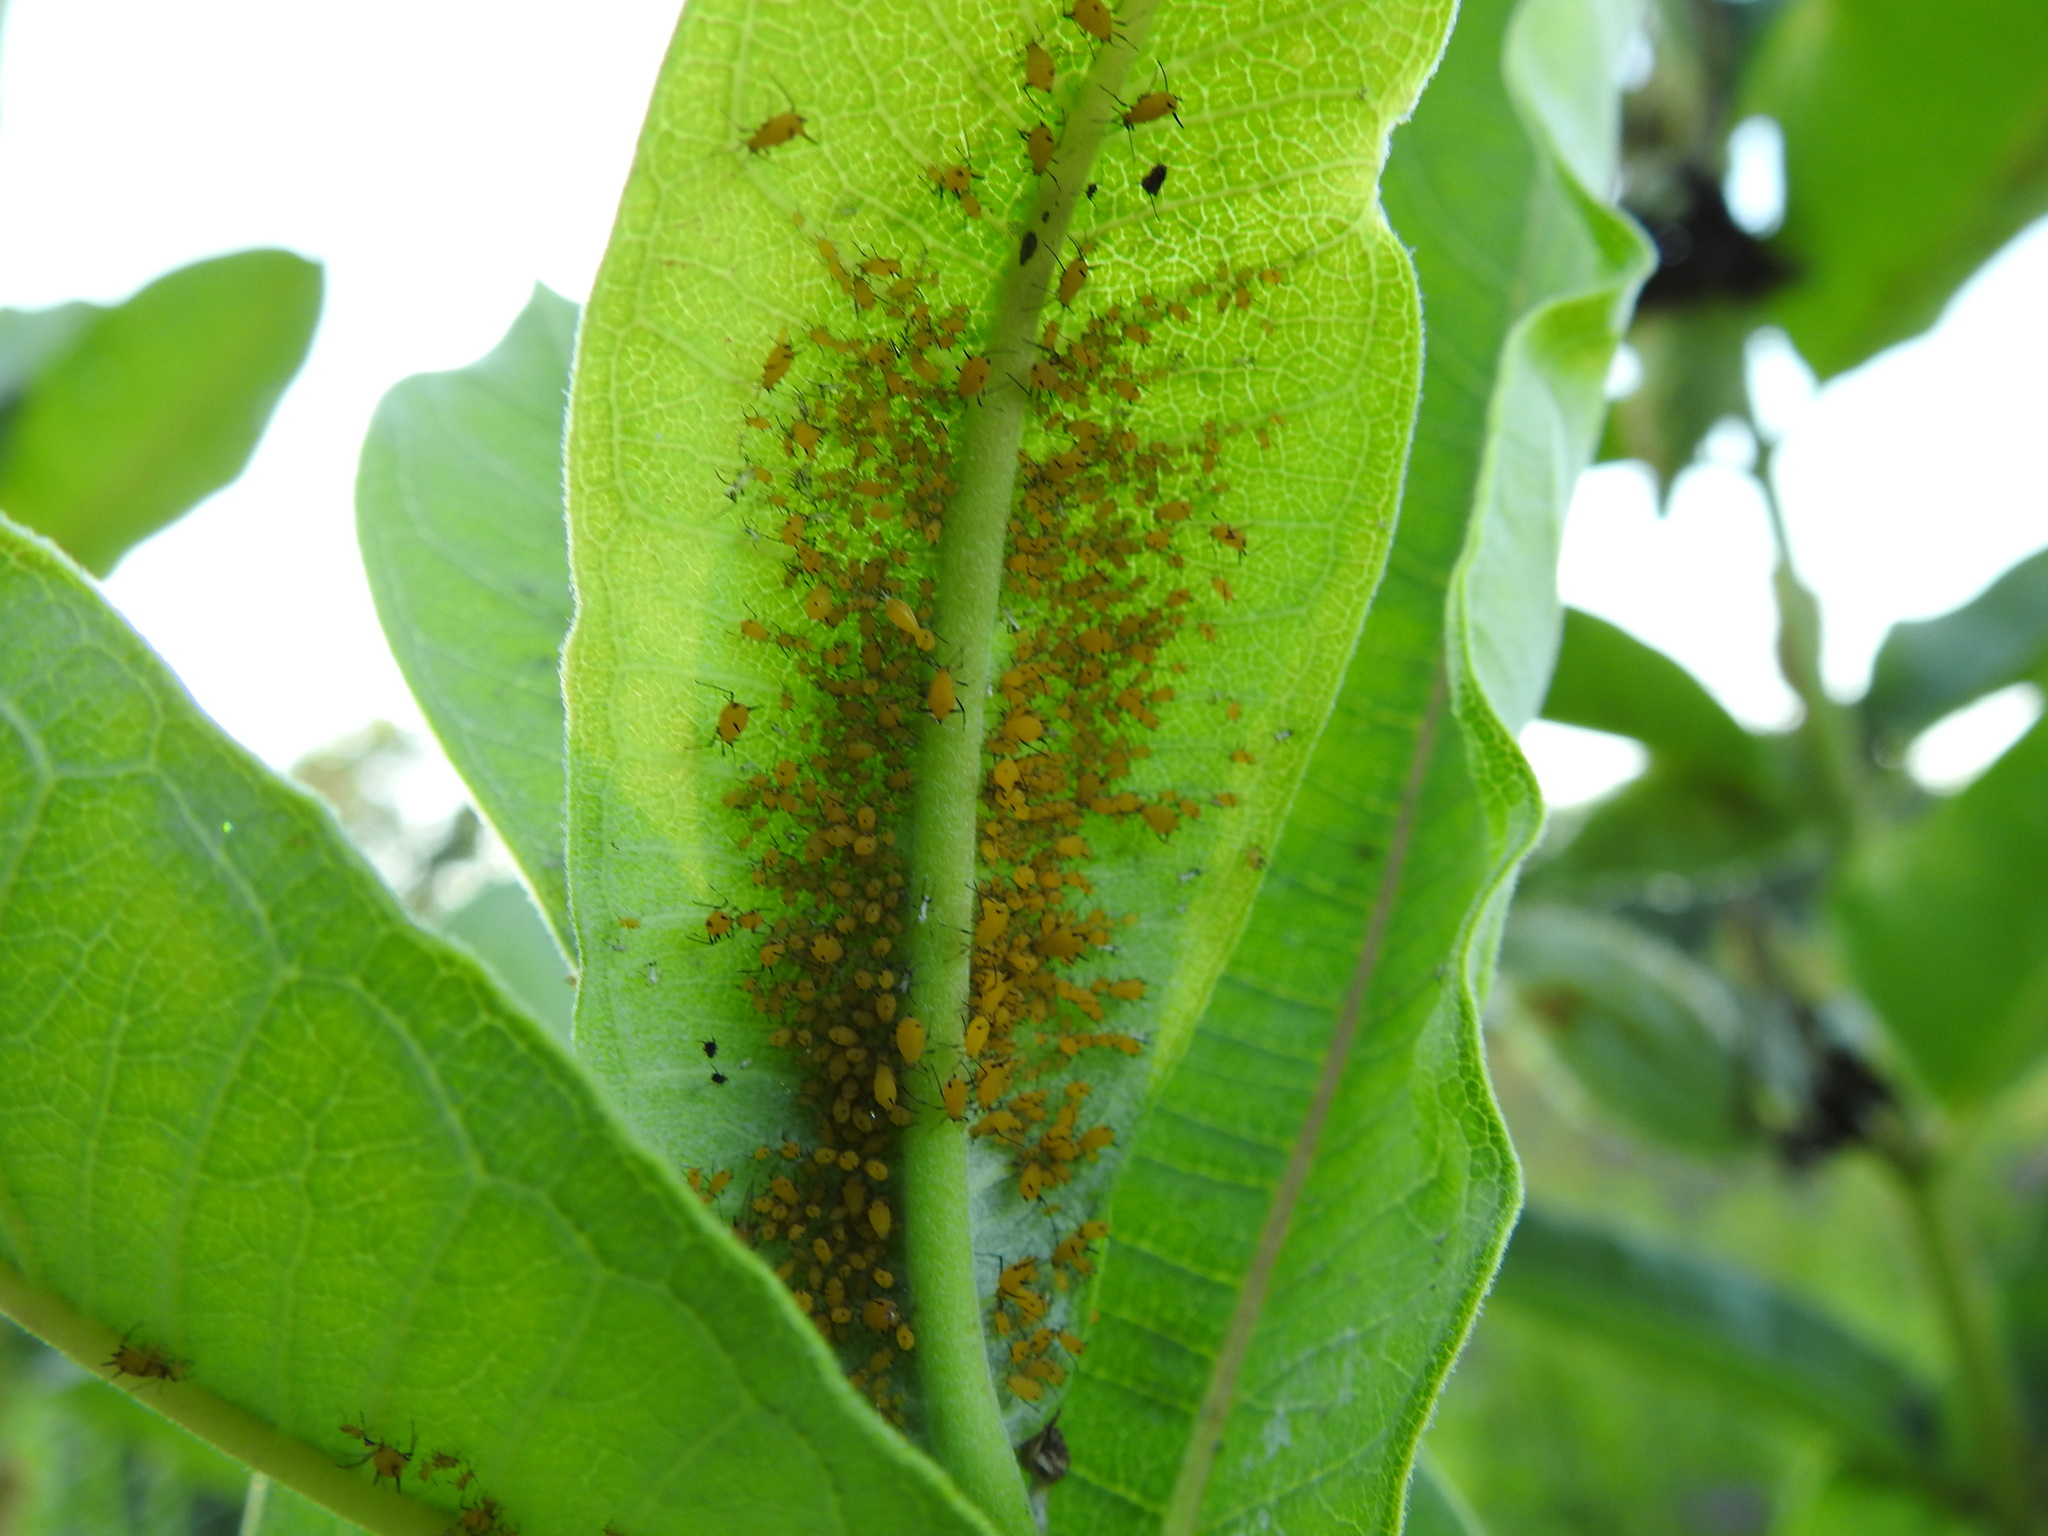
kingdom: Animalia
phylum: Arthropoda
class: Insecta
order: Hemiptera
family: Aphididae
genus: Aphis
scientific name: Aphis nerii
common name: Oleander aphid
